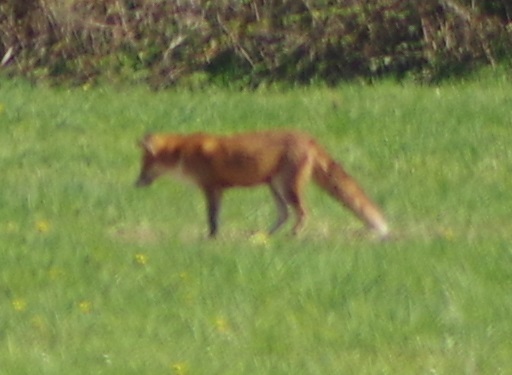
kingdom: Animalia
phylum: Chordata
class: Mammalia
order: Carnivora
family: Canidae
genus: Vulpes
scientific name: Vulpes vulpes
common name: Red fox
